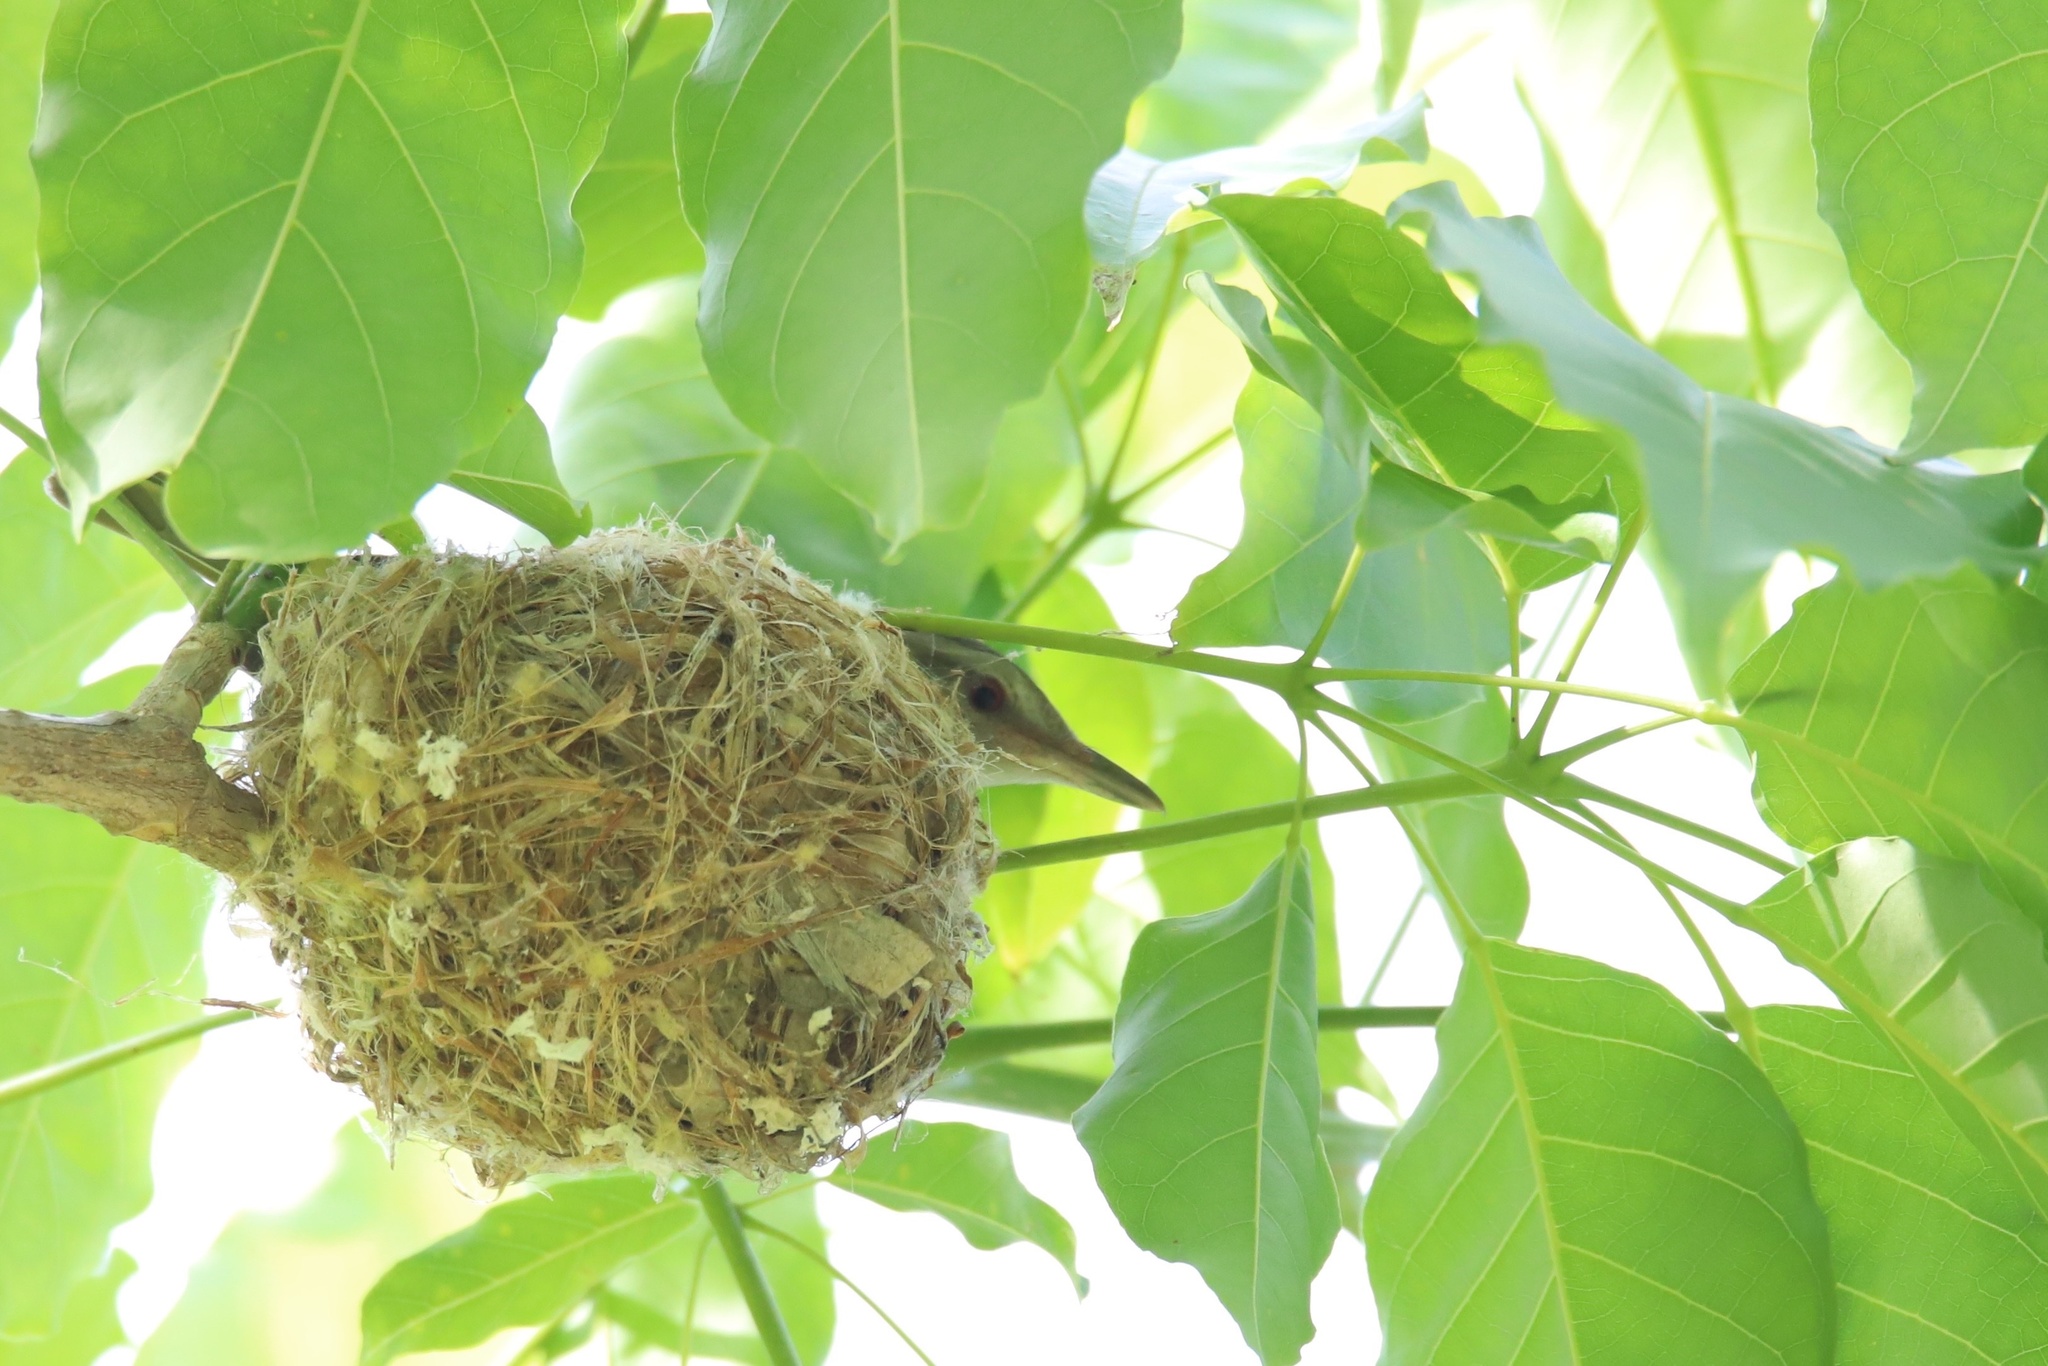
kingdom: Animalia
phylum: Chordata
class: Aves
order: Passeriformes
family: Vireonidae
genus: Vireo
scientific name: Vireo flavoviridis
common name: Yellow-green vireo
